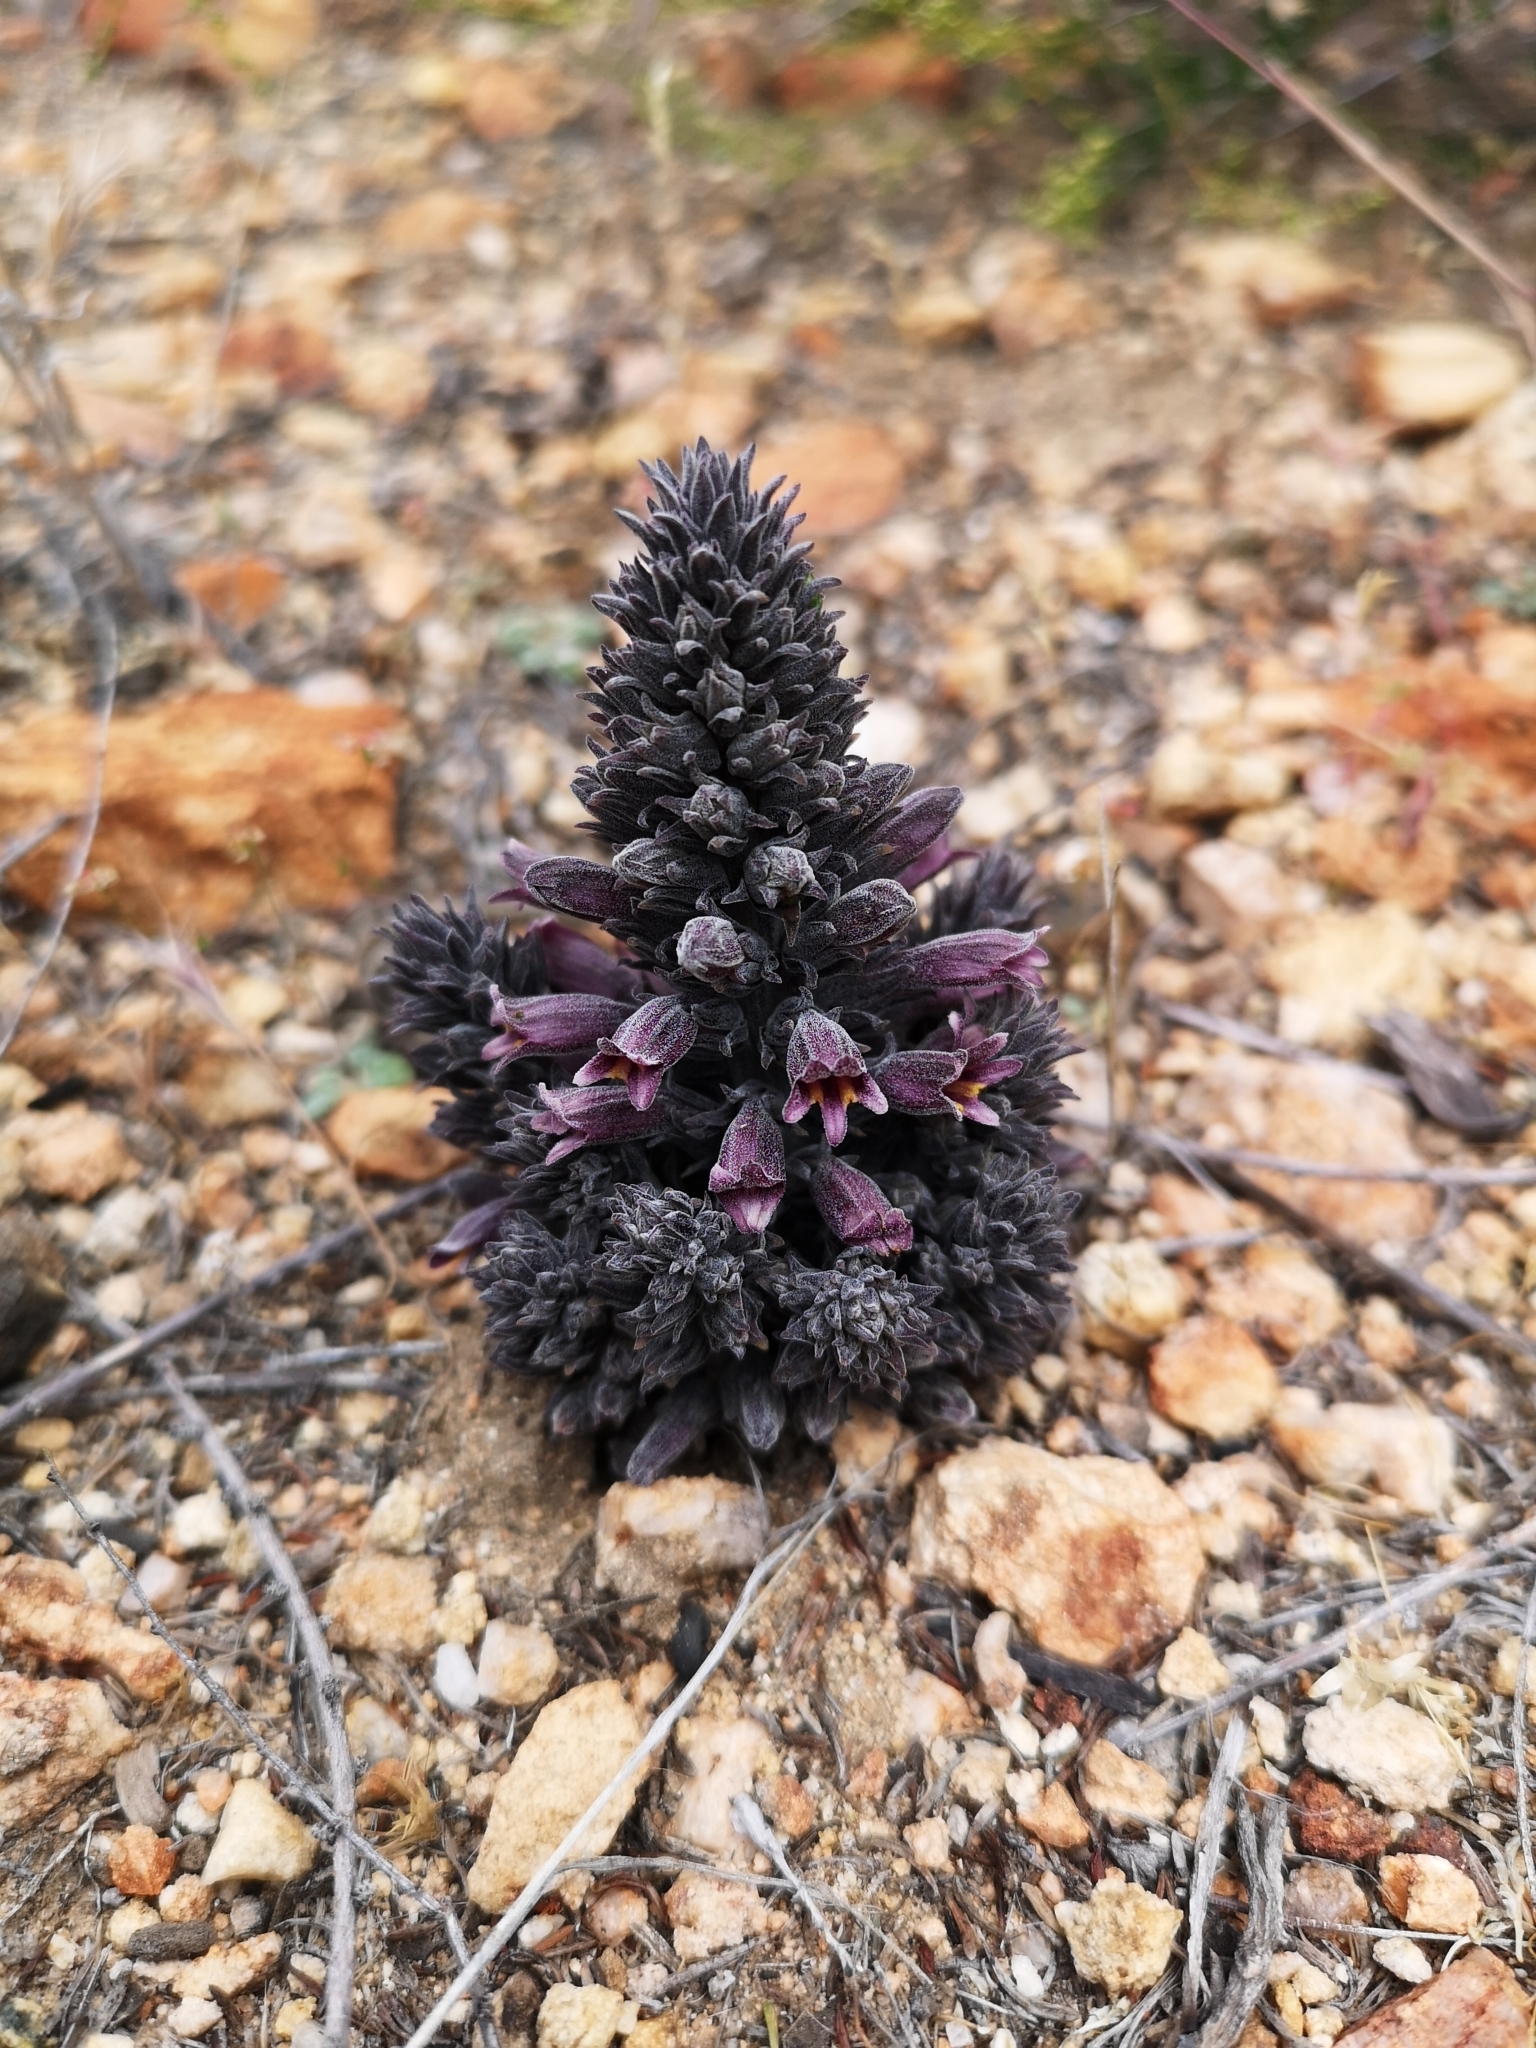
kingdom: Plantae
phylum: Tracheophyta
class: Magnoliopsida
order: Lamiales
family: Orobanchaceae
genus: Aphyllon
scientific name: Aphyllon tuberosum
